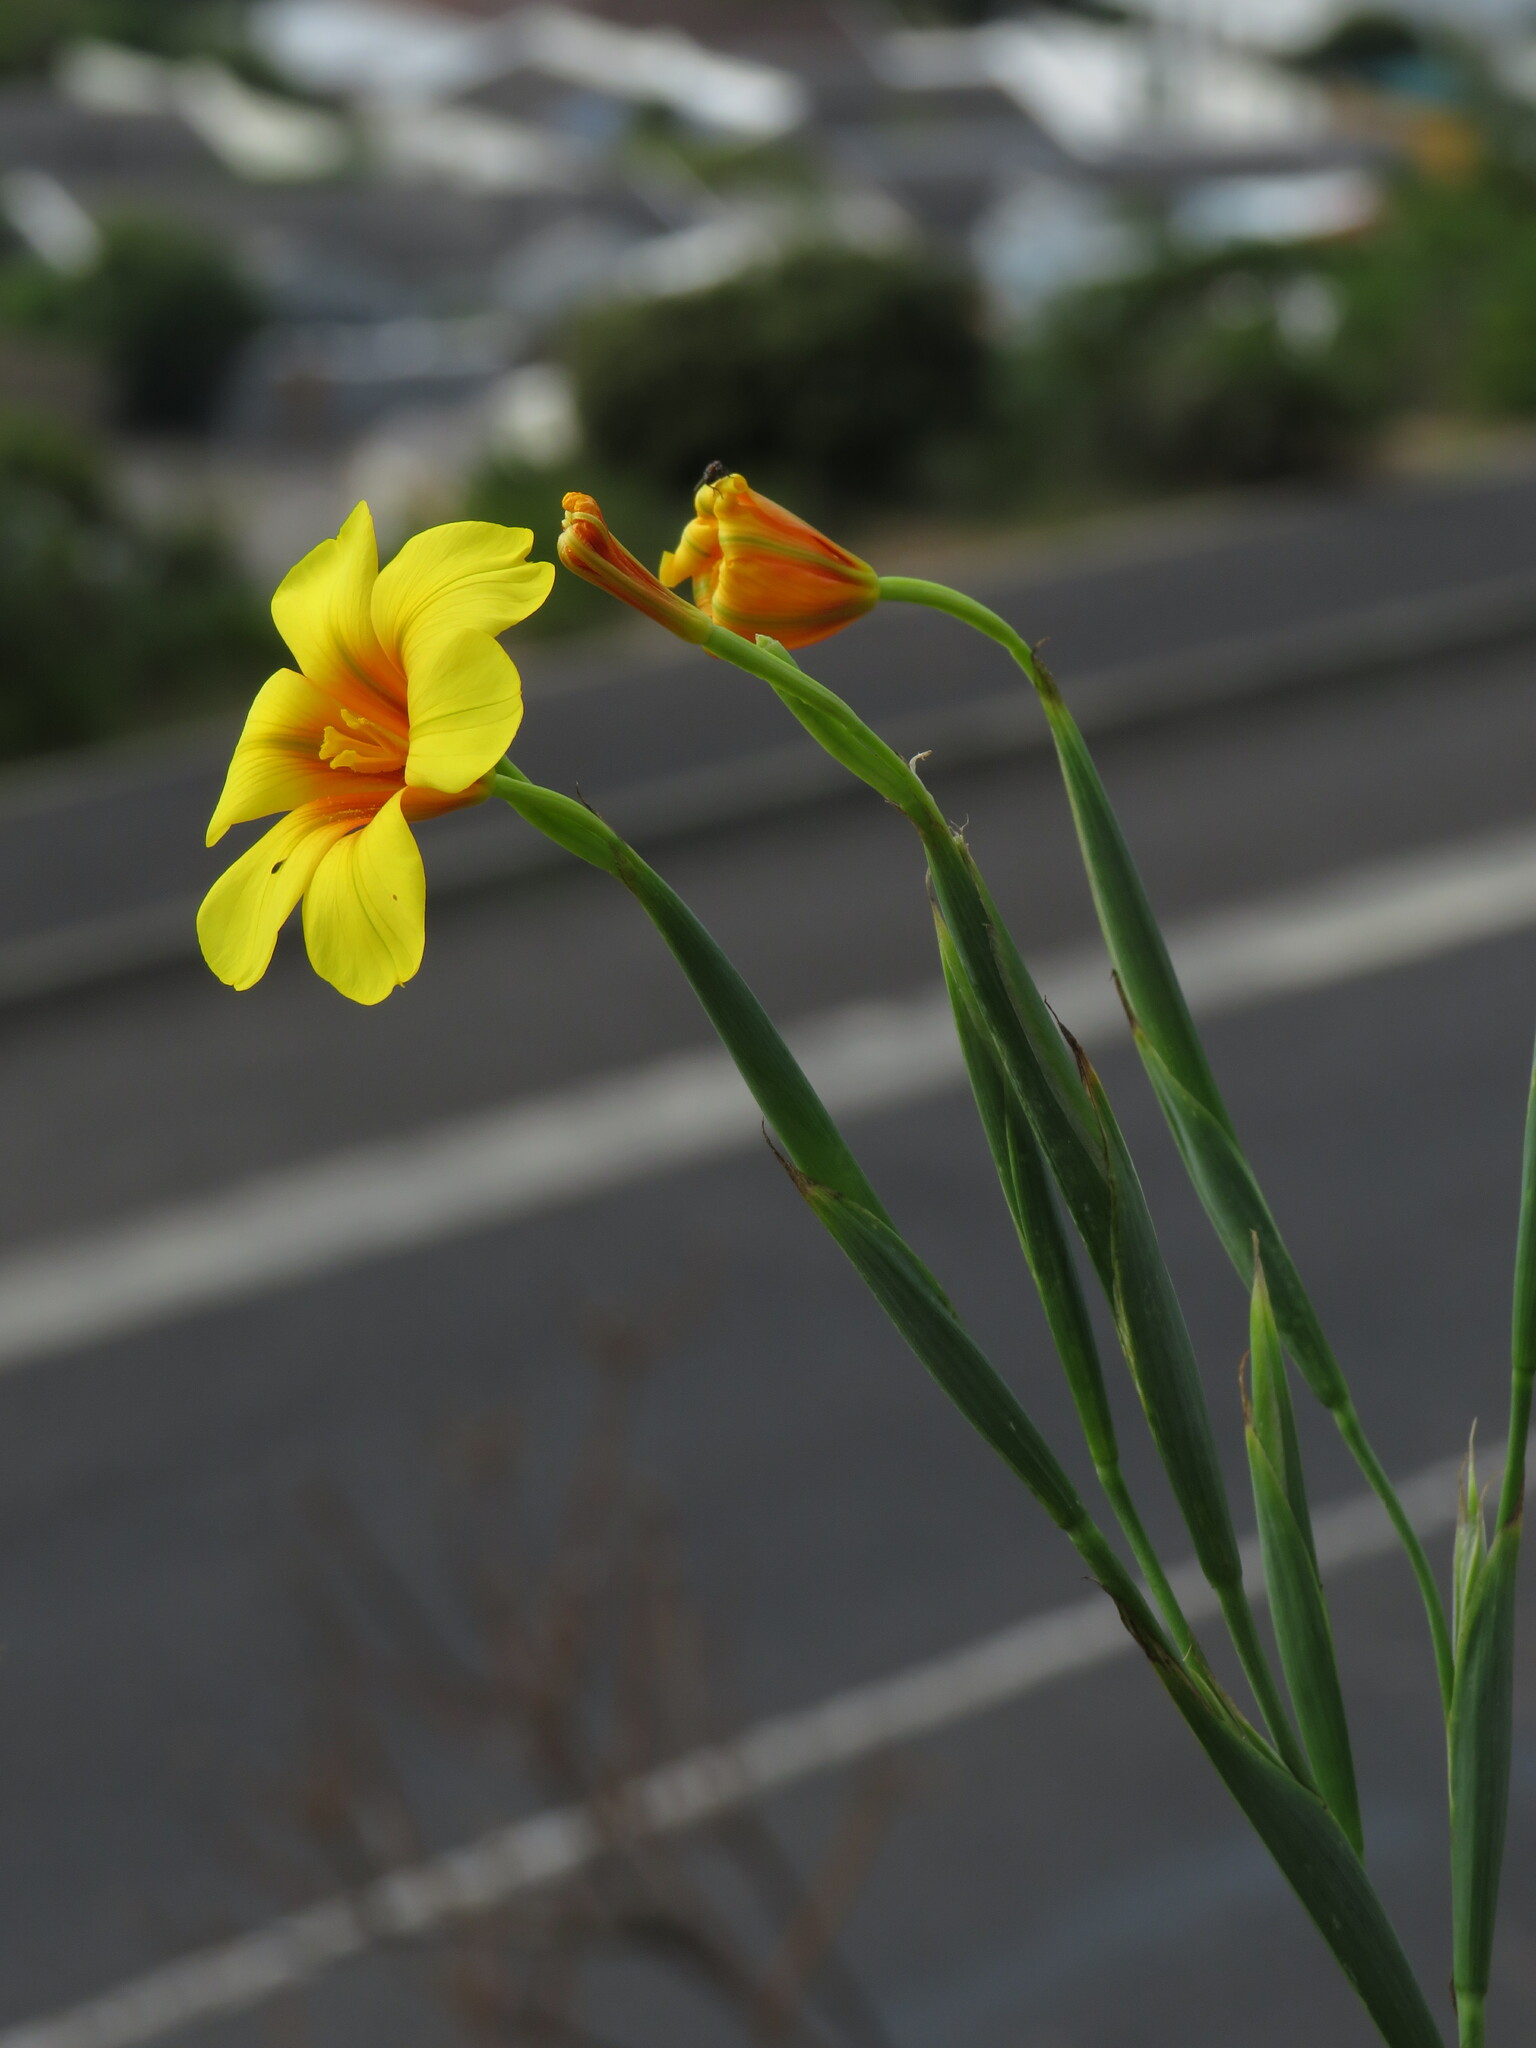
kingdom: Plantae
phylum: Tracheophyta
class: Liliopsida
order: Asparagales
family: Iridaceae
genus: Moraea
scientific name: Moraea ochroleuca
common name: Red tulp
